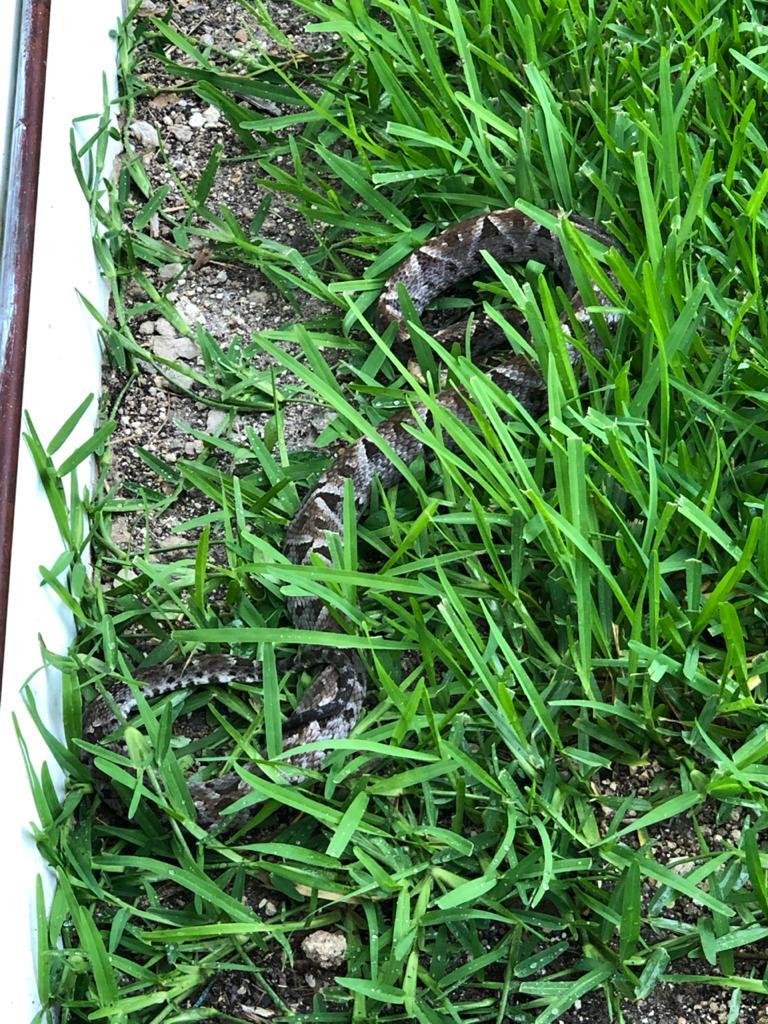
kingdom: Animalia
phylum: Chordata
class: Squamata
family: Viperidae
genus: Bothrops
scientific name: Bothrops asper
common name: Terciopelo
